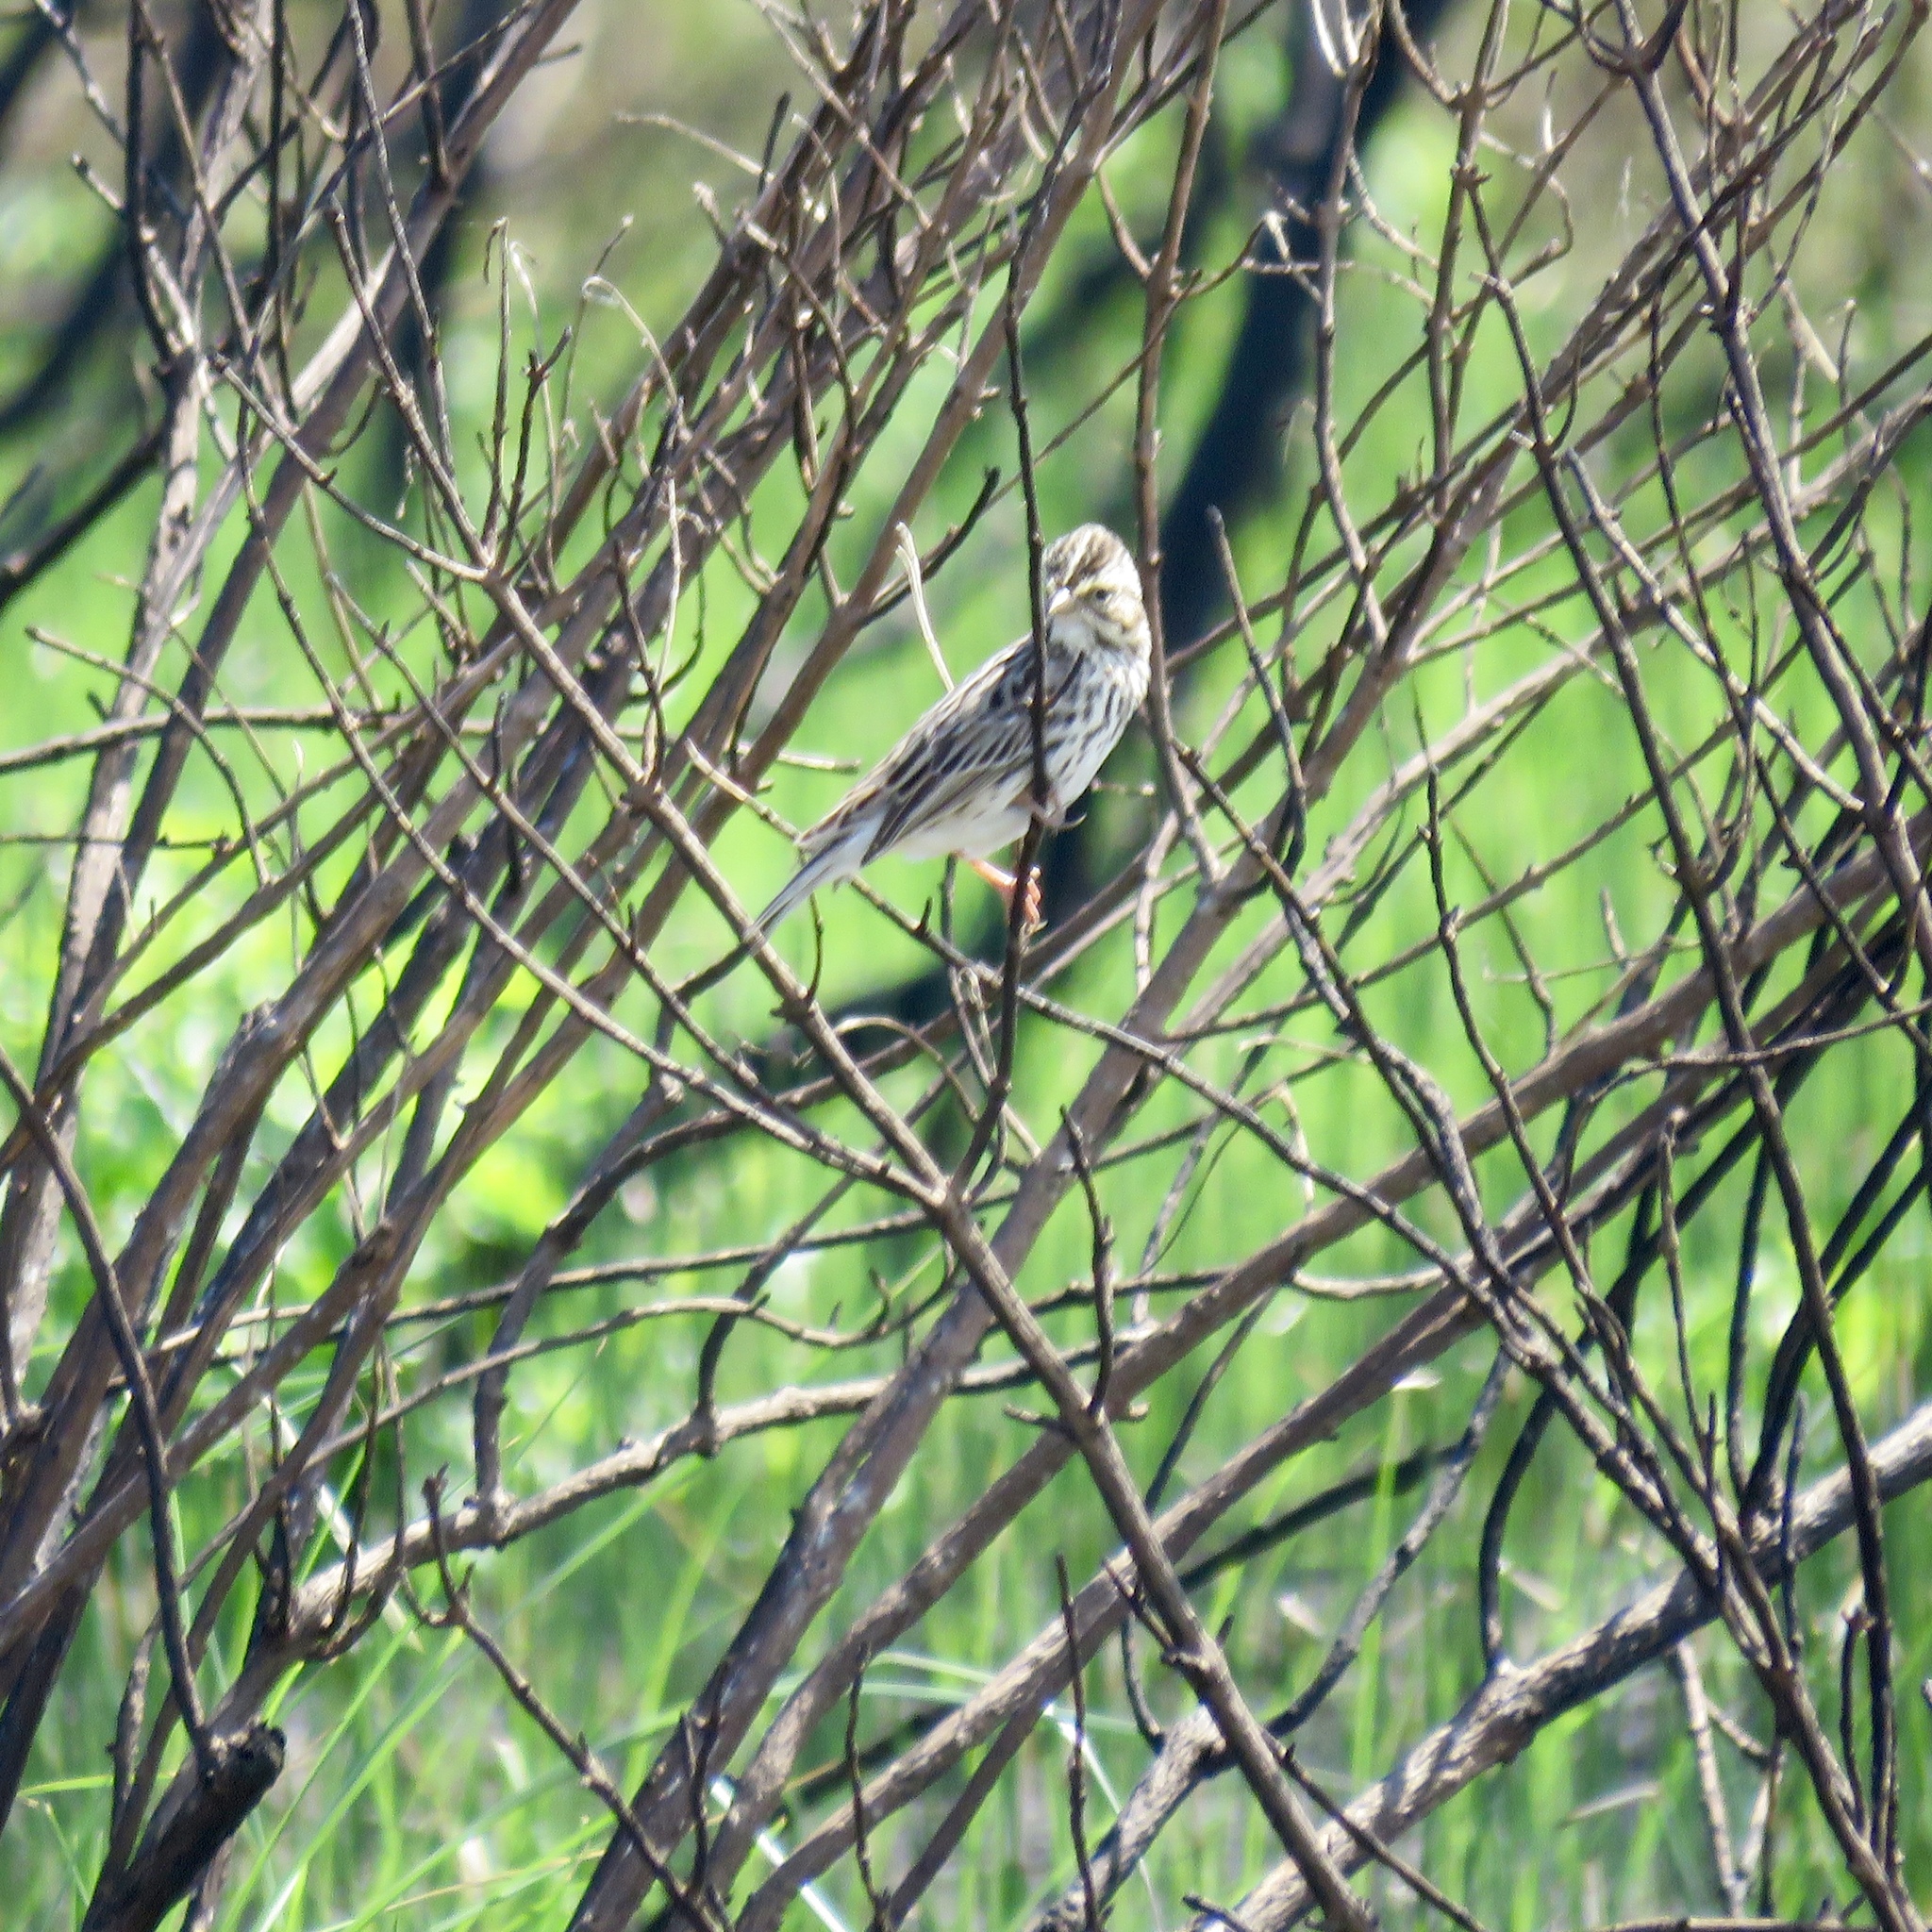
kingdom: Animalia
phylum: Chordata
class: Aves
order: Passeriformes
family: Passerellidae
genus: Passerculus
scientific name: Passerculus sandwichensis
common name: Savannah sparrow
